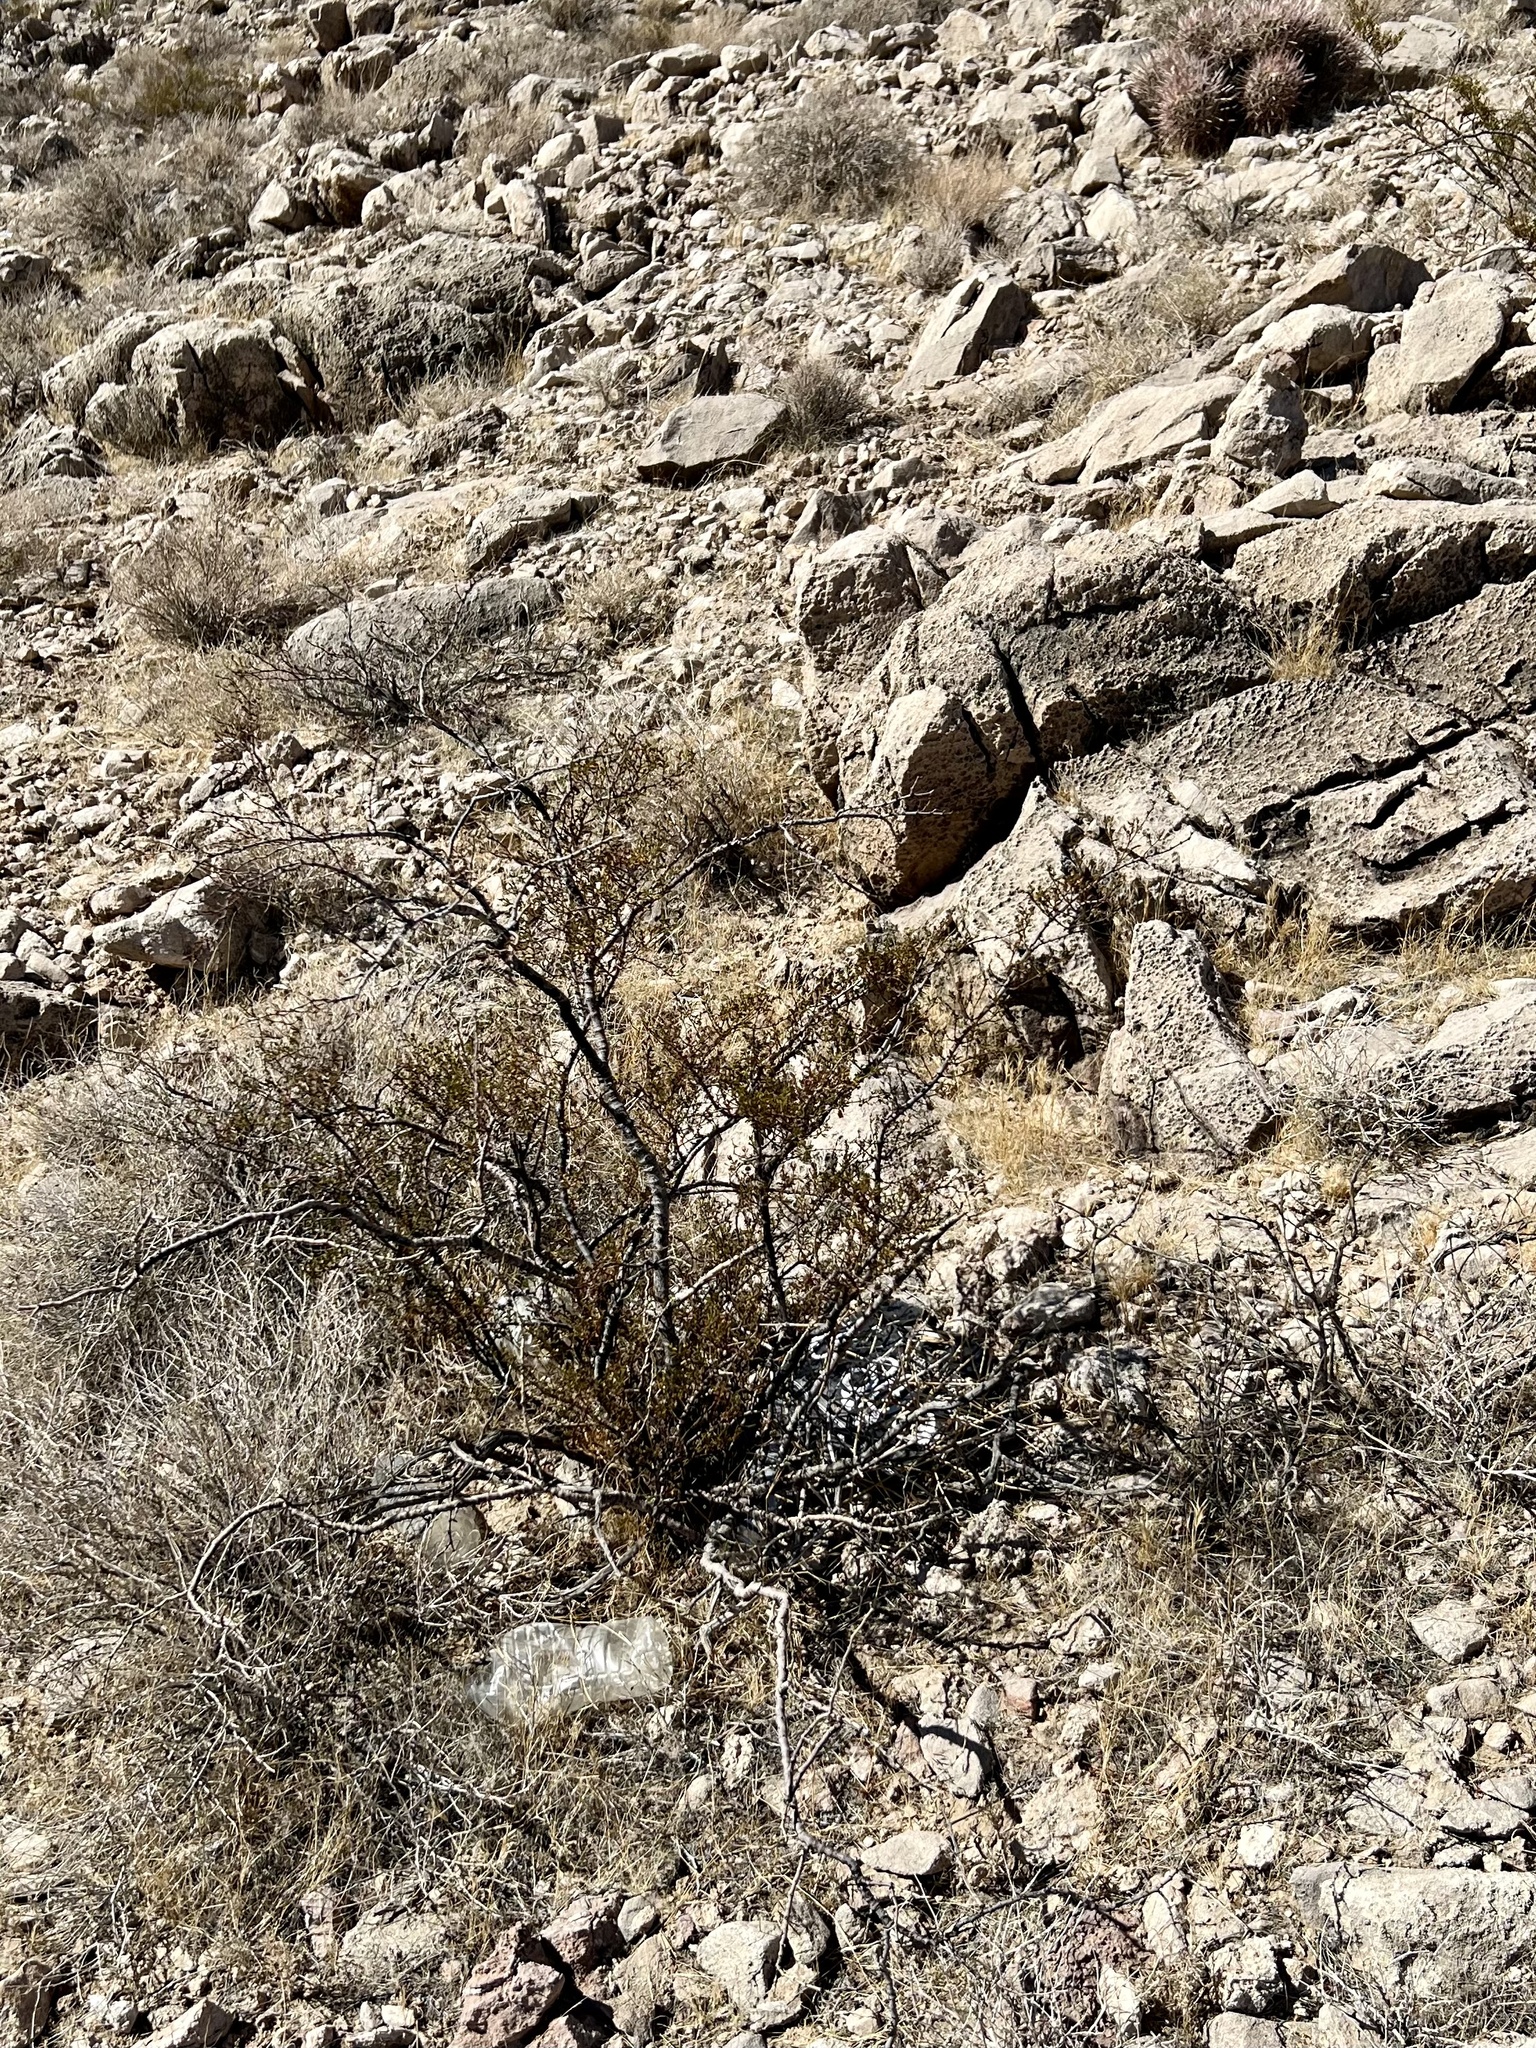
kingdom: Plantae
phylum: Tracheophyta
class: Magnoliopsida
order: Zygophyllales
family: Zygophyllaceae
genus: Larrea
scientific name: Larrea tridentata
